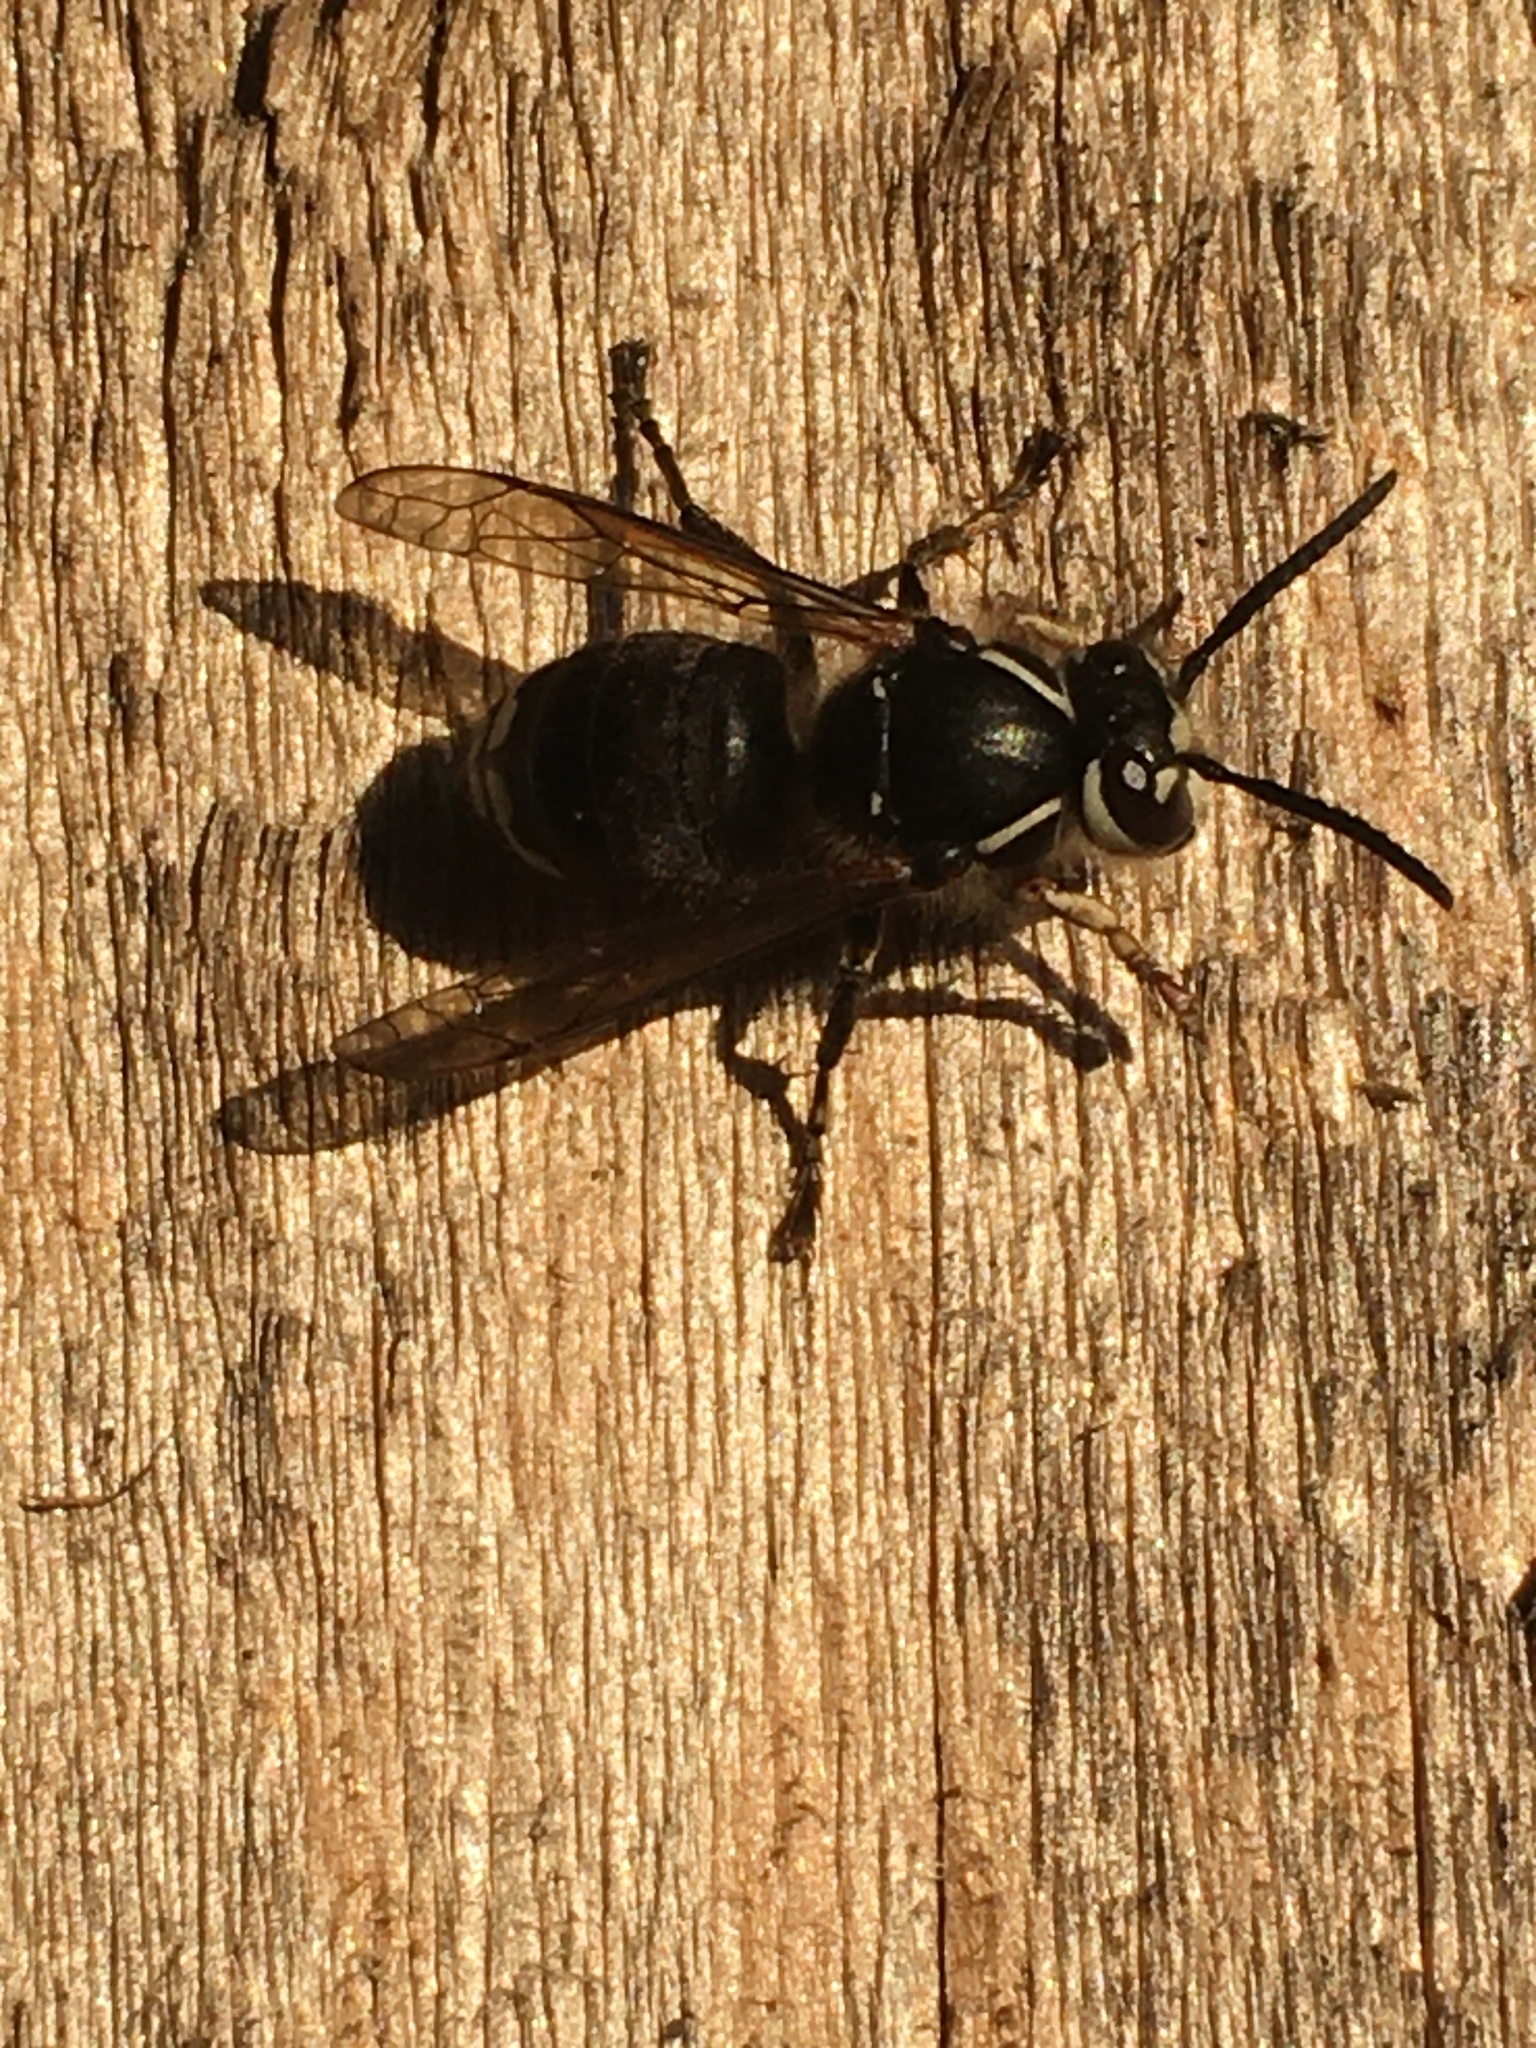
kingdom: Animalia
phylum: Arthropoda
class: Insecta
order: Hymenoptera
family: Vespidae
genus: Dolichovespula
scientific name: Dolichovespula maculata
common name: Bald-faced hornet
